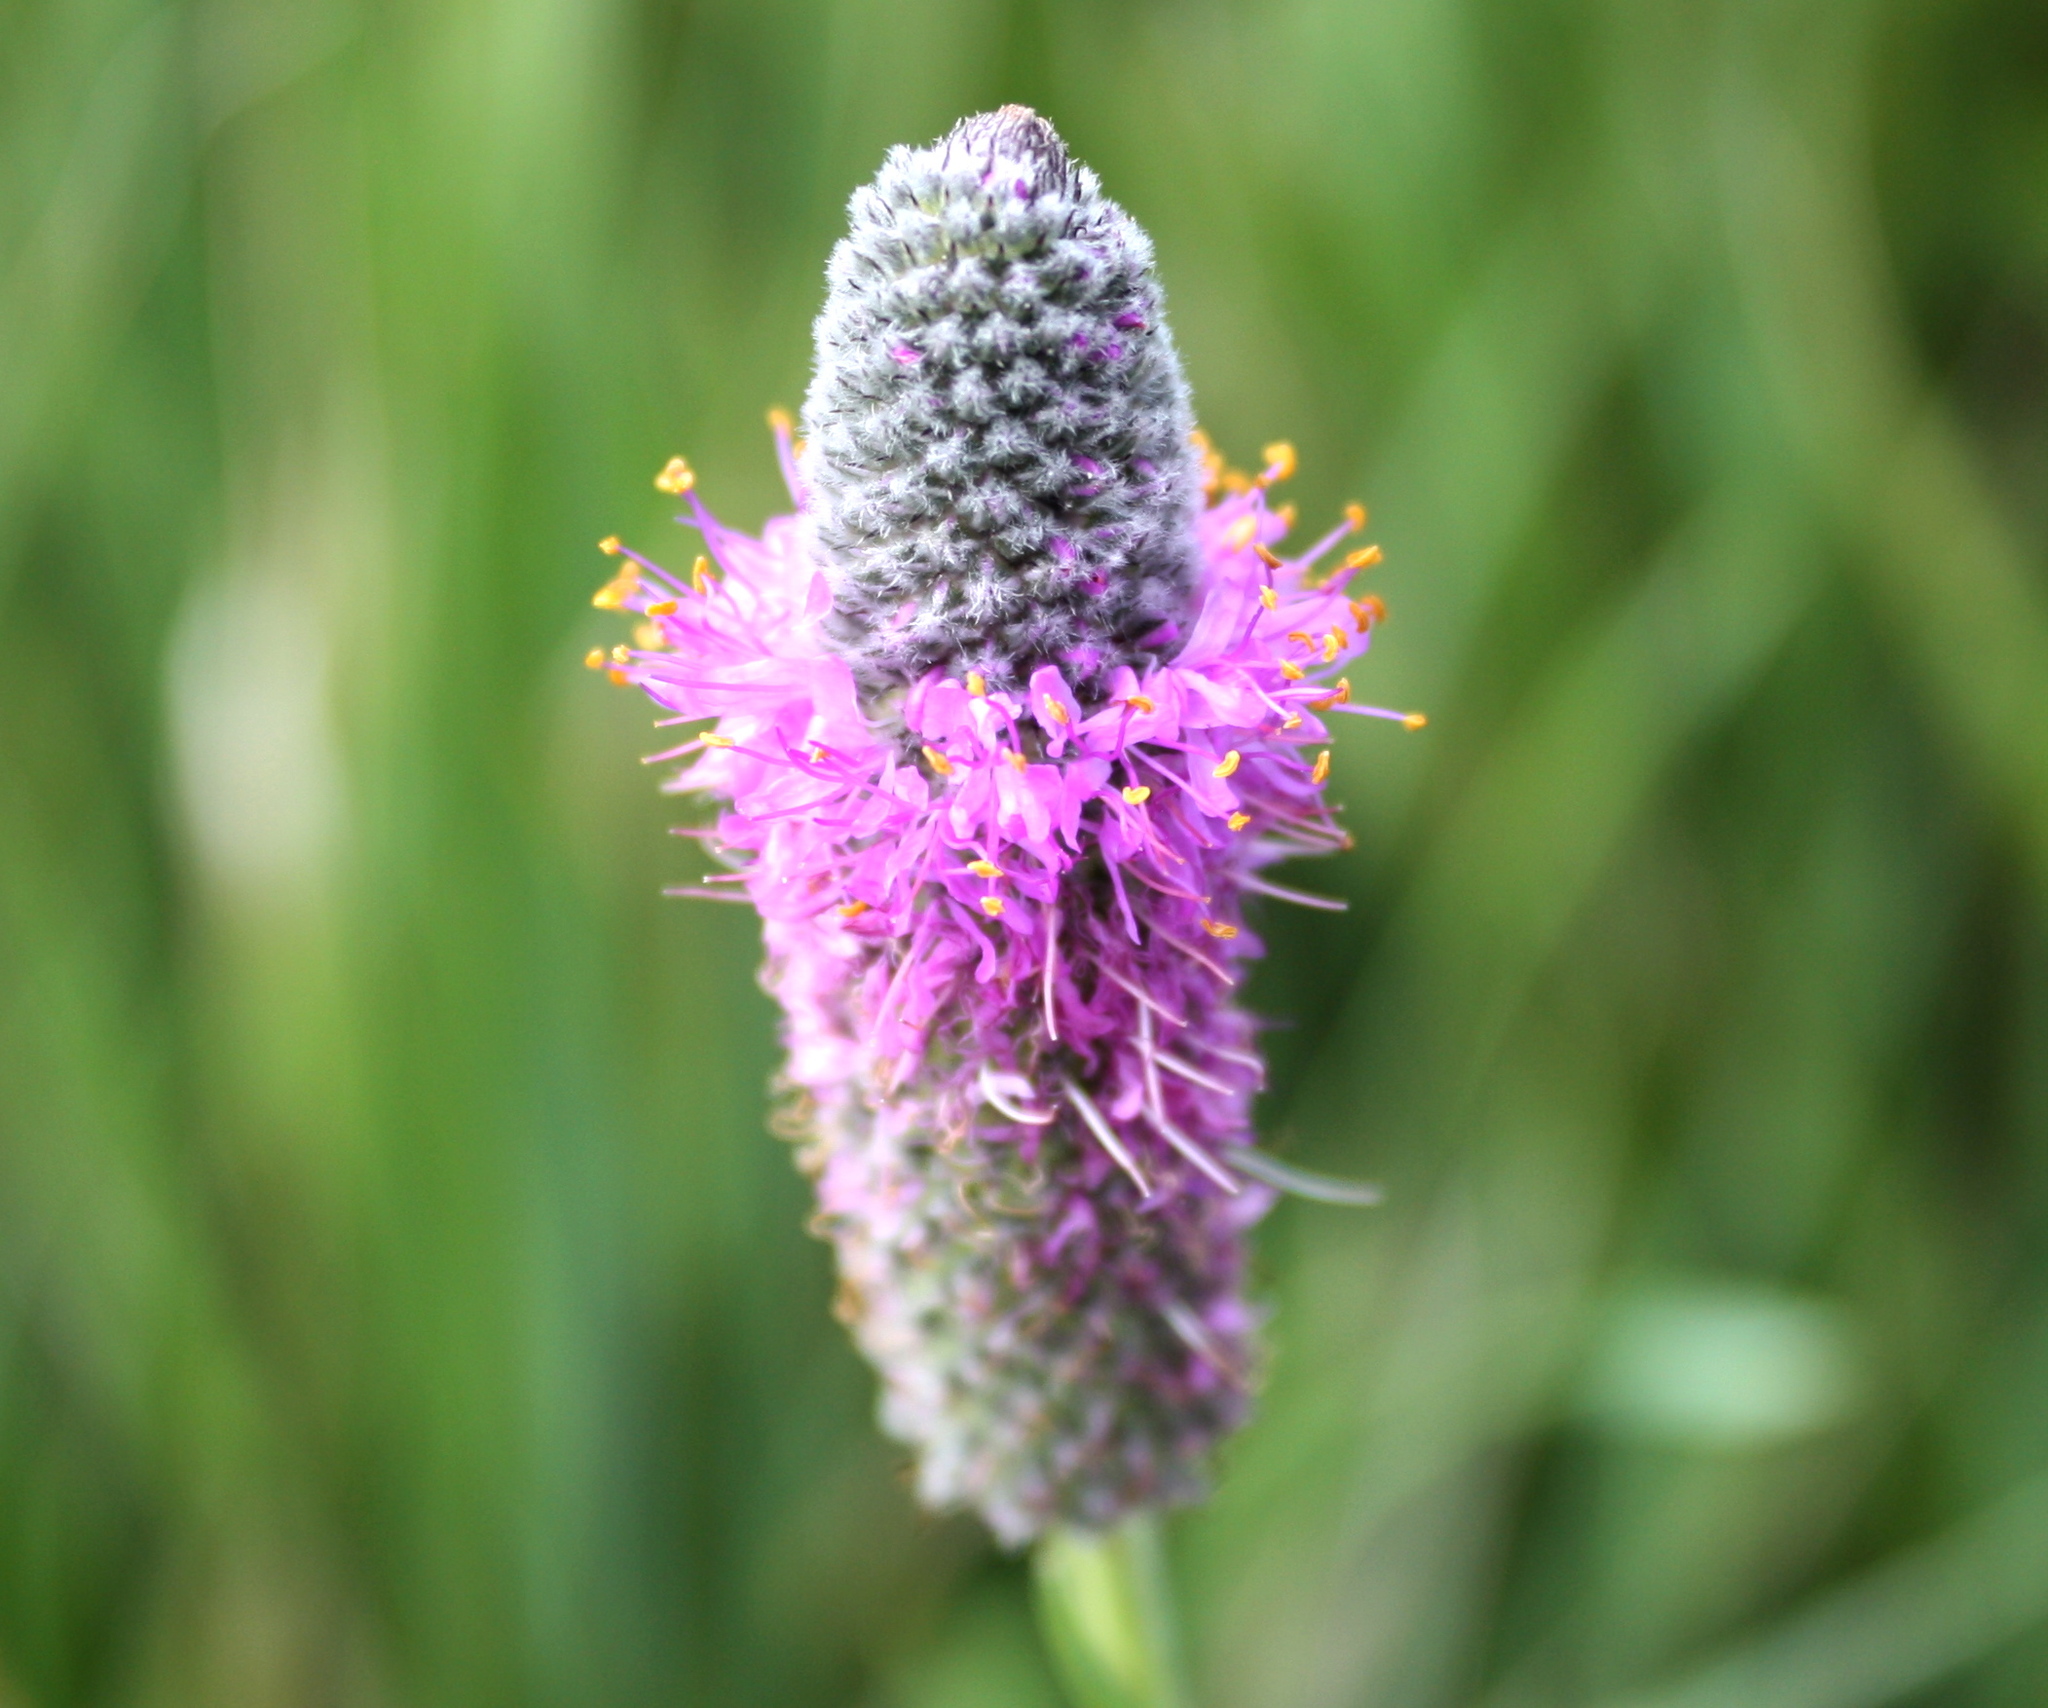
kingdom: Plantae
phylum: Tracheophyta
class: Magnoliopsida
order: Fabales
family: Fabaceae
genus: Dalea
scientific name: Dalea purpurea
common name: Purple prairie-clover
